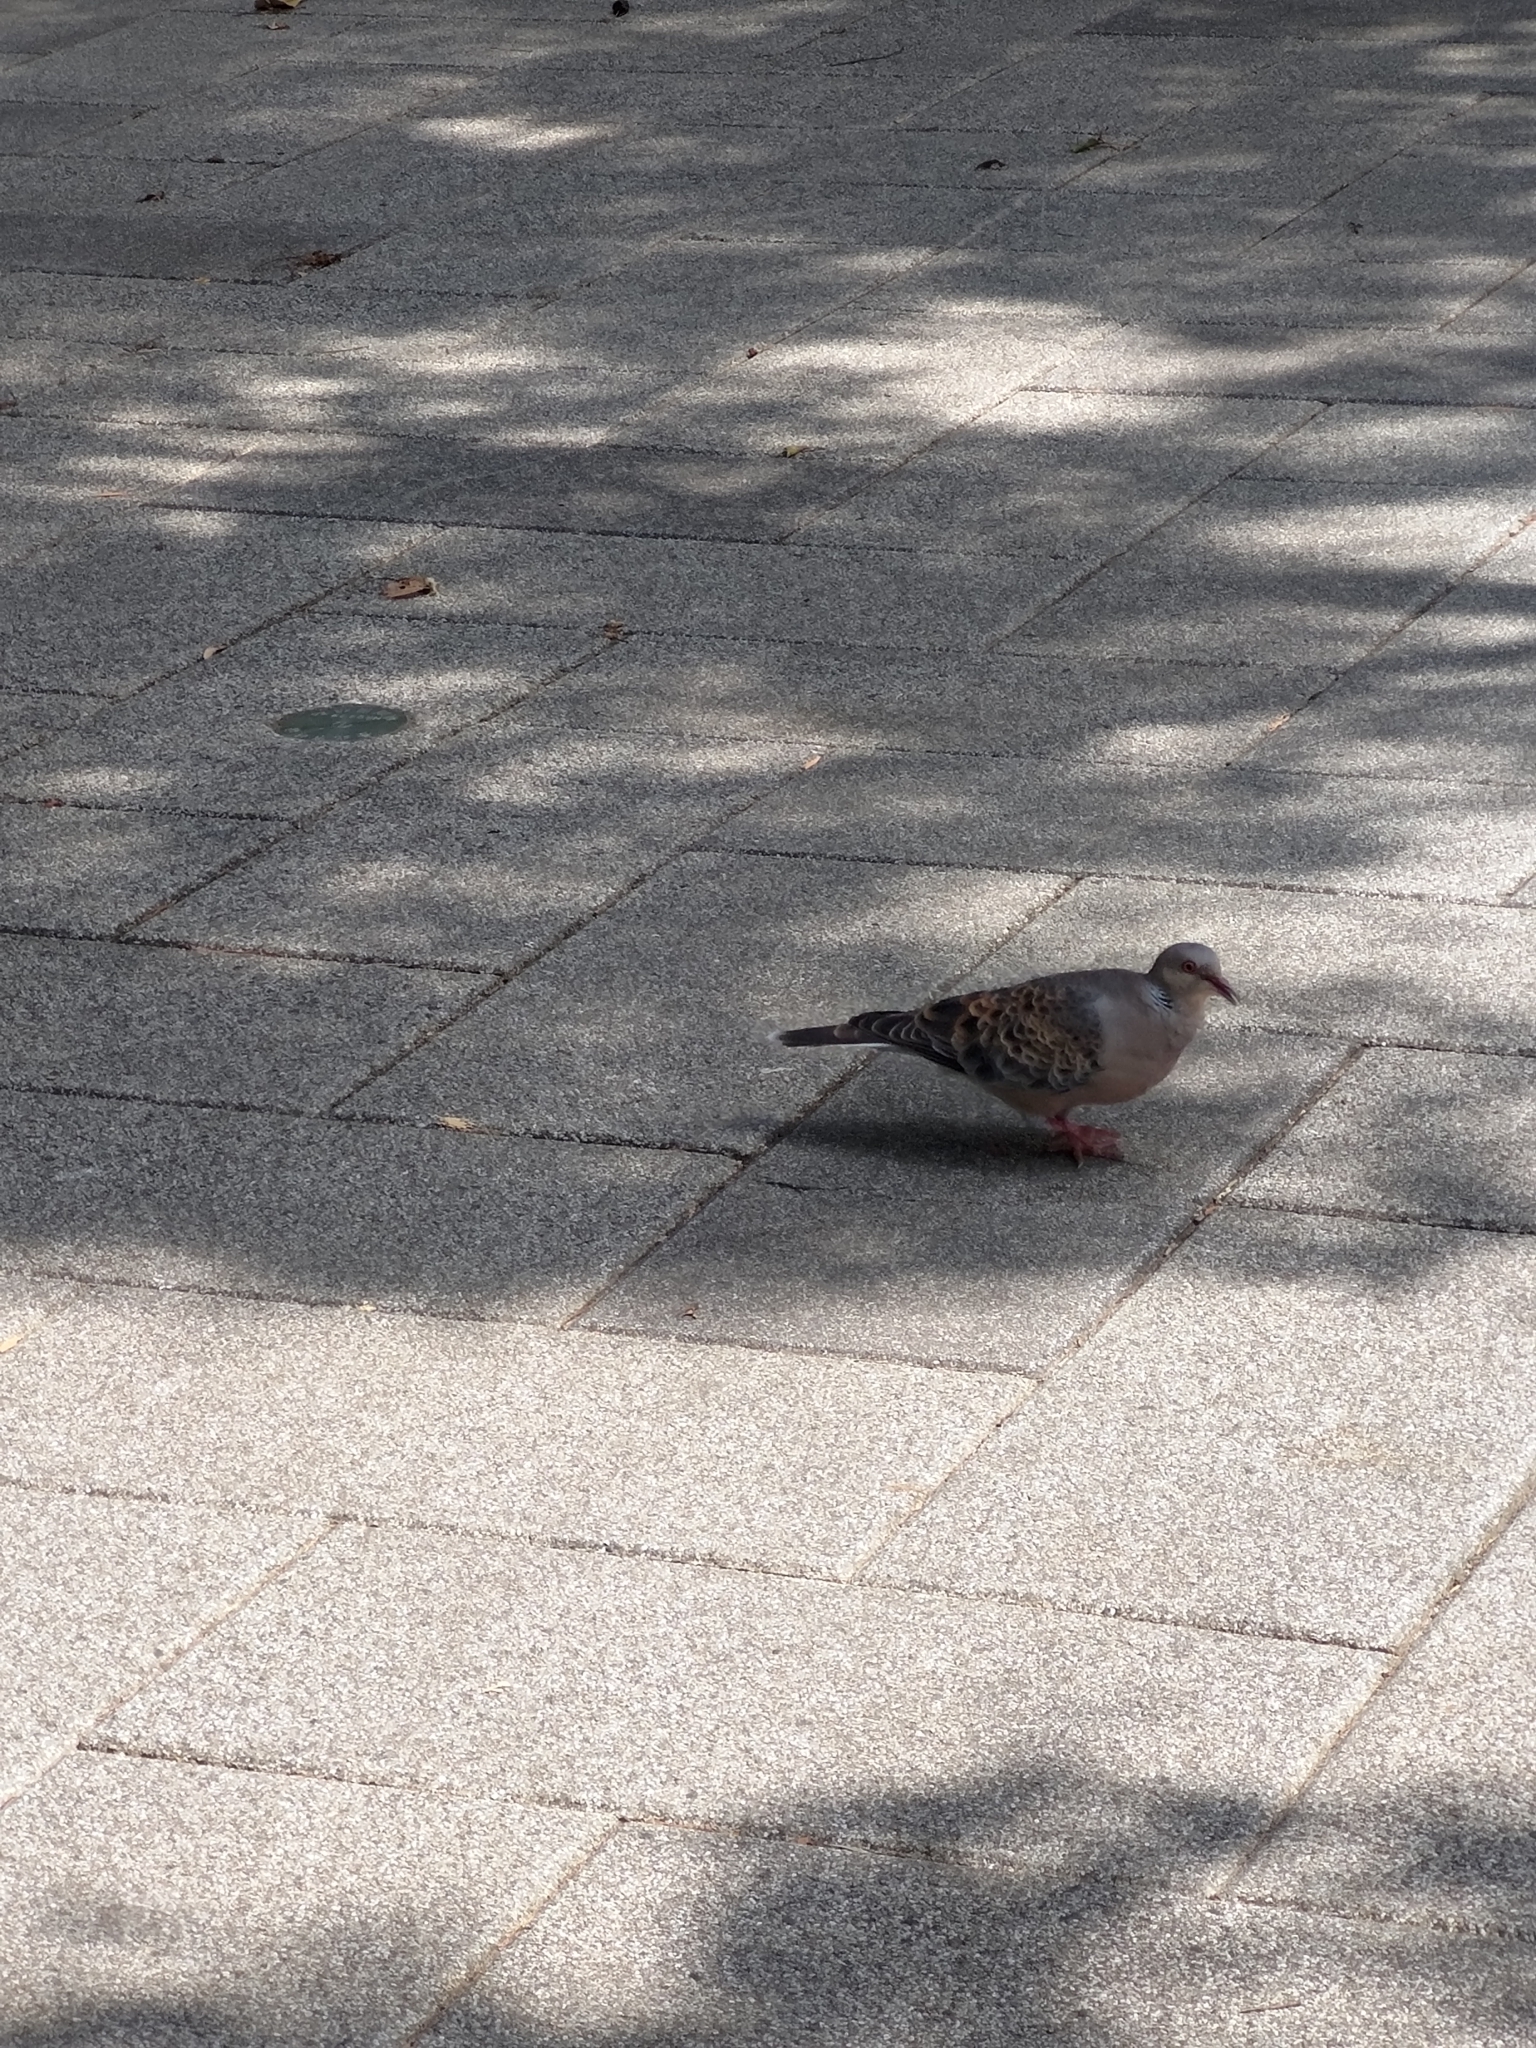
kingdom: Animalia
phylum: Chordata
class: Aves
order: Columbiformes
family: Columbidae
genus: Streptopelia
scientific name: Streptopelia orientalis
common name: Oriental turtle dove
